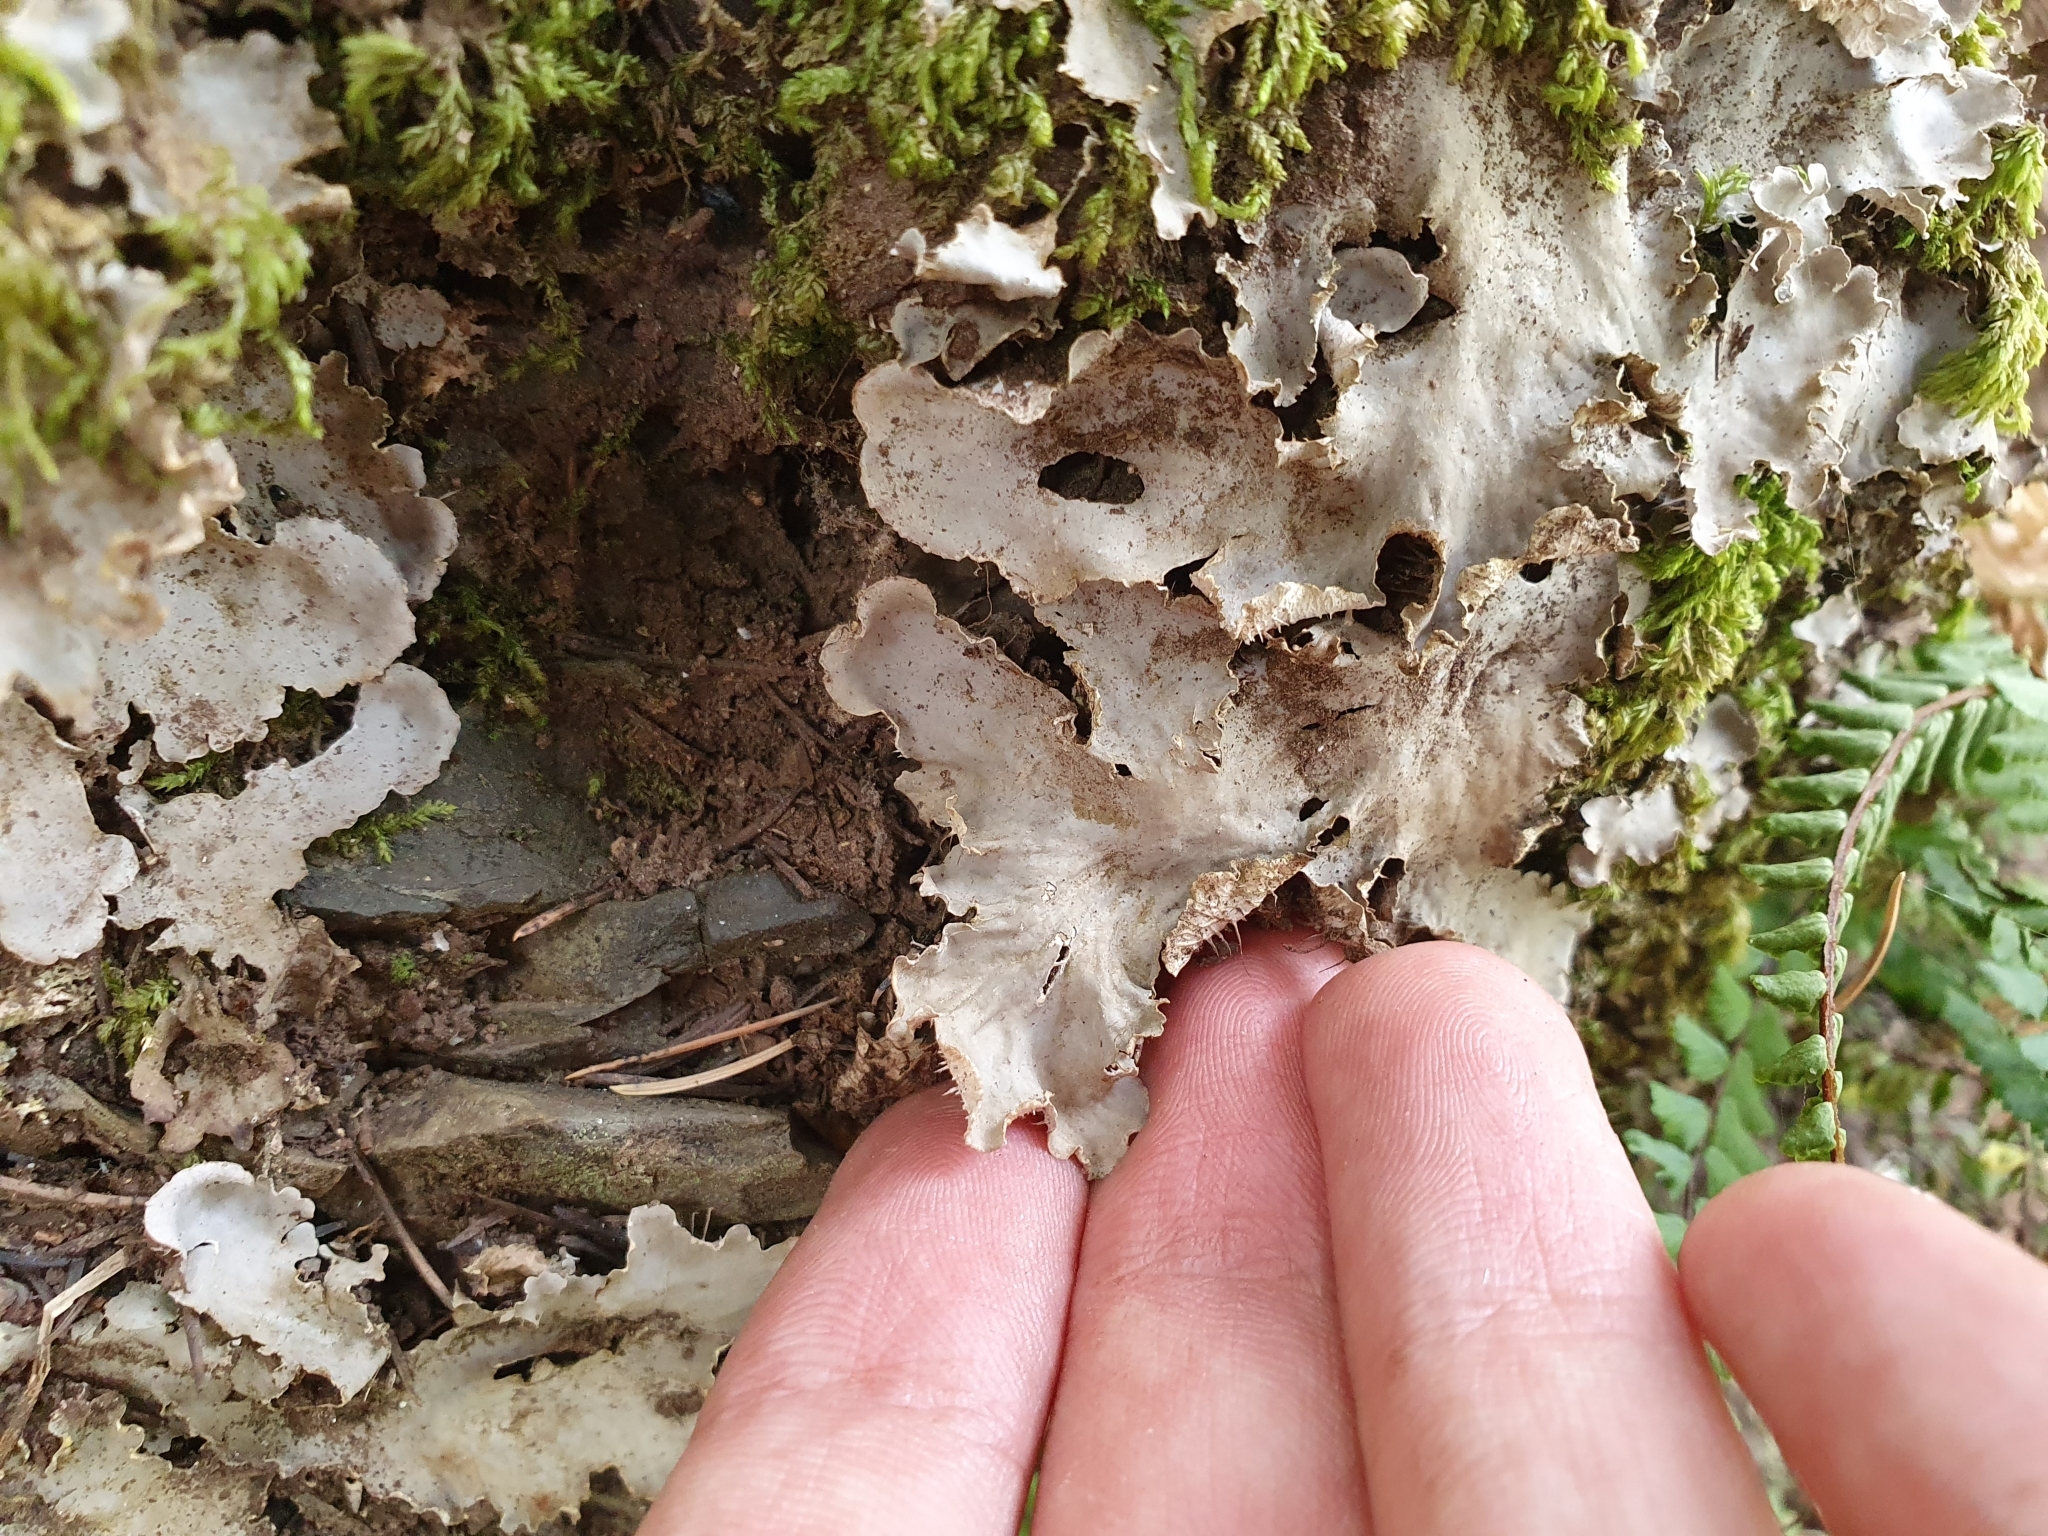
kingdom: Fungi
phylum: Ascomycota
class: Lecanoromycetes
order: Peltigerales
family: Peltigeraceae
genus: Peltigera
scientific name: Peltigera
